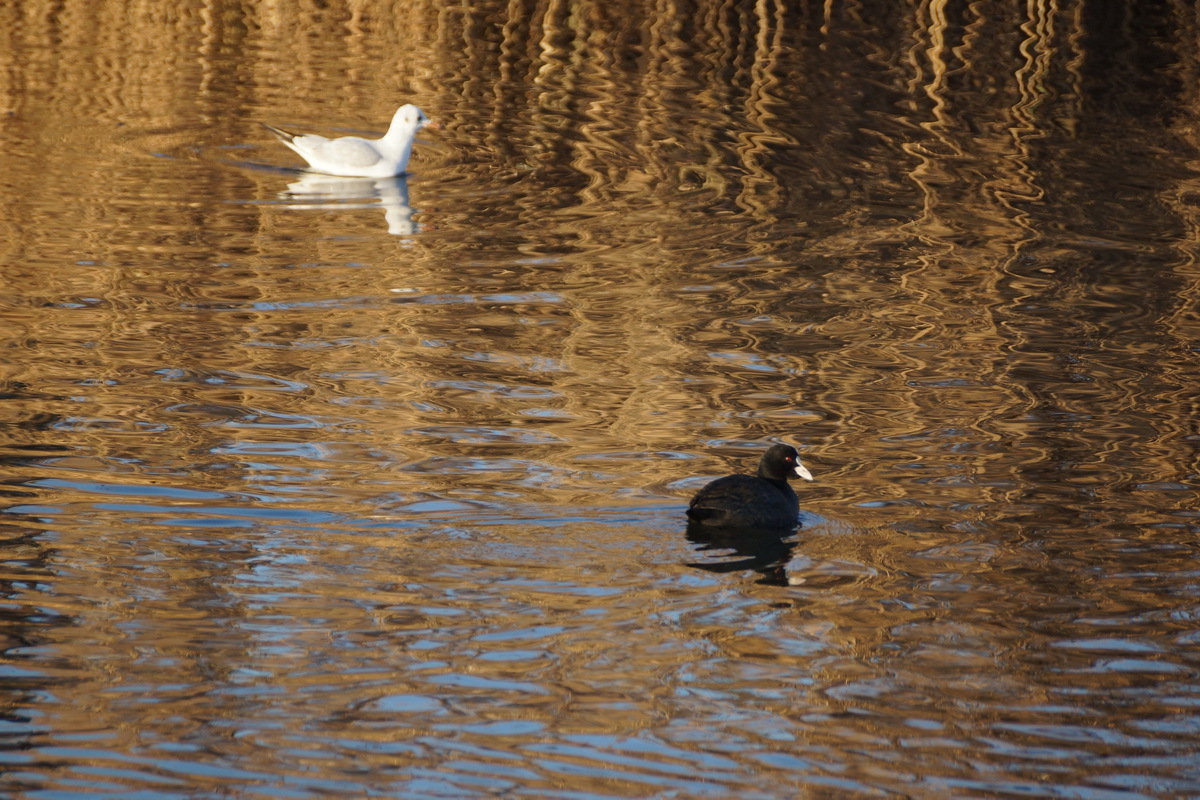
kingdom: Animalia
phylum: Chordata
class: Aves
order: Gruiformes
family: Rallidae
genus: Fulica
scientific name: Fulica atra
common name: Eurasian coot
